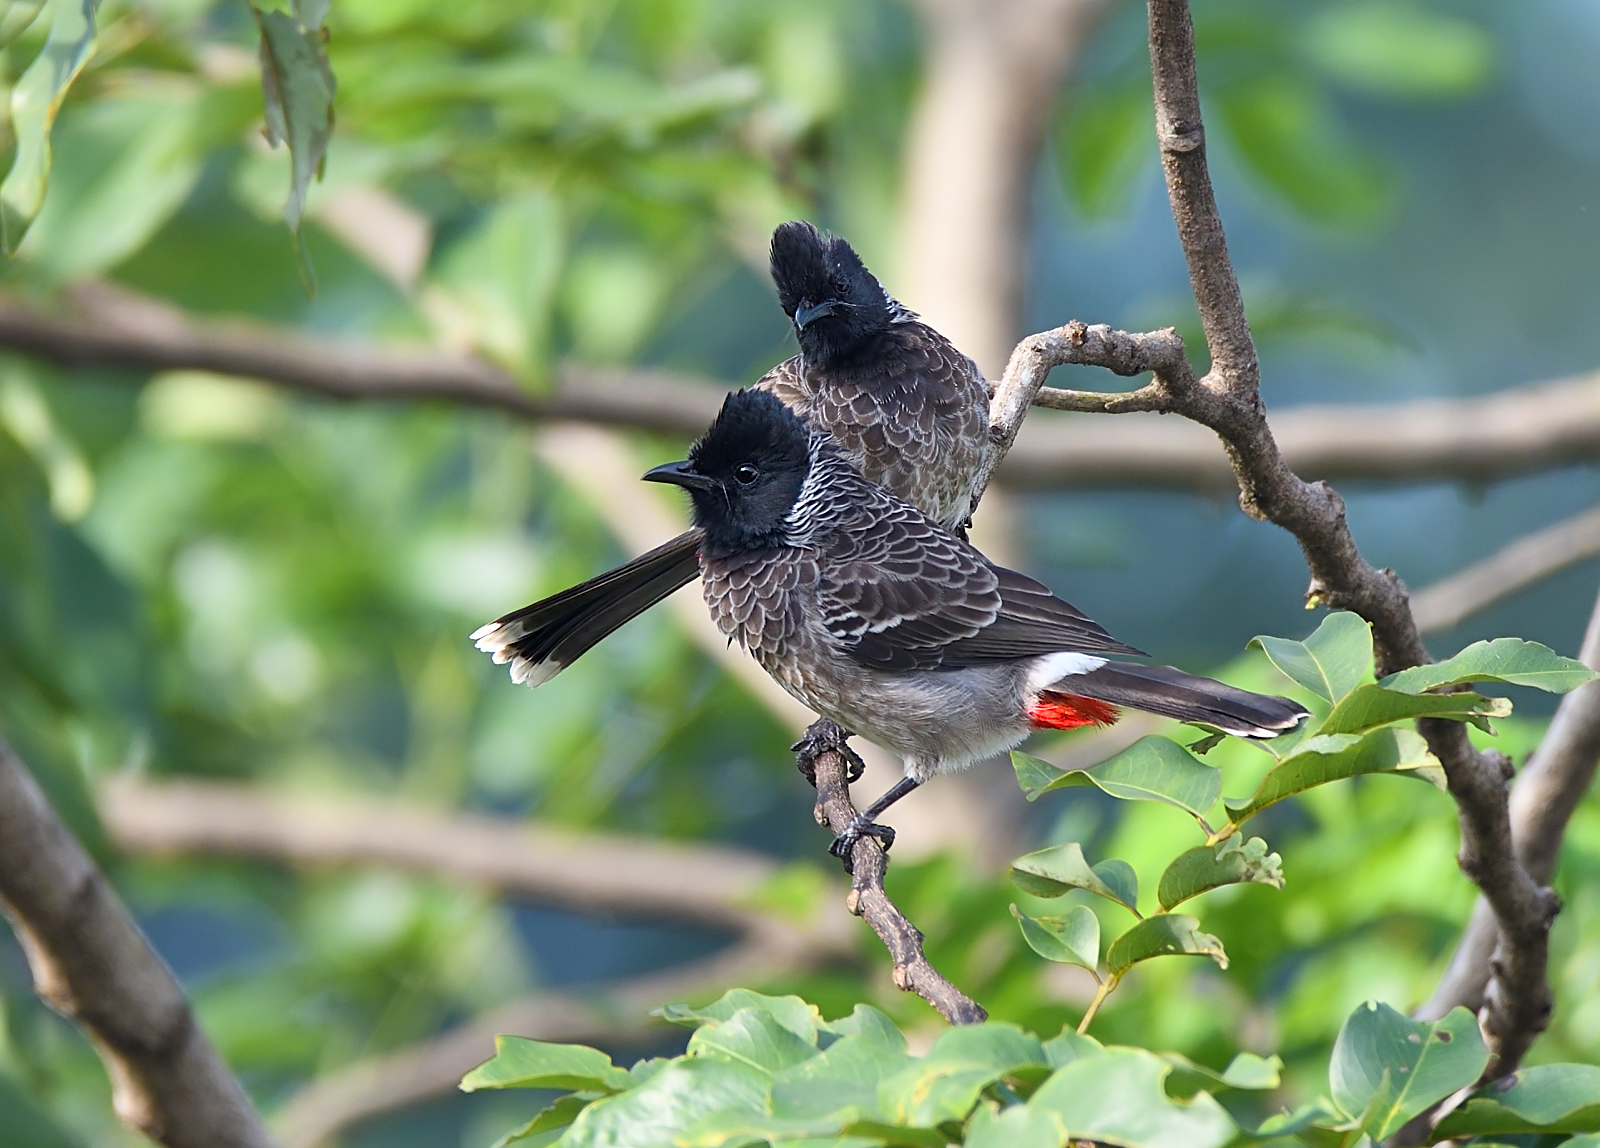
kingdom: Animalia
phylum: Chordata
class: Aves
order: Passeriformes
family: Pycnonotidae
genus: Pycnonotus
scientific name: Pycnonotus cafer
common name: Red-vented bulbul
